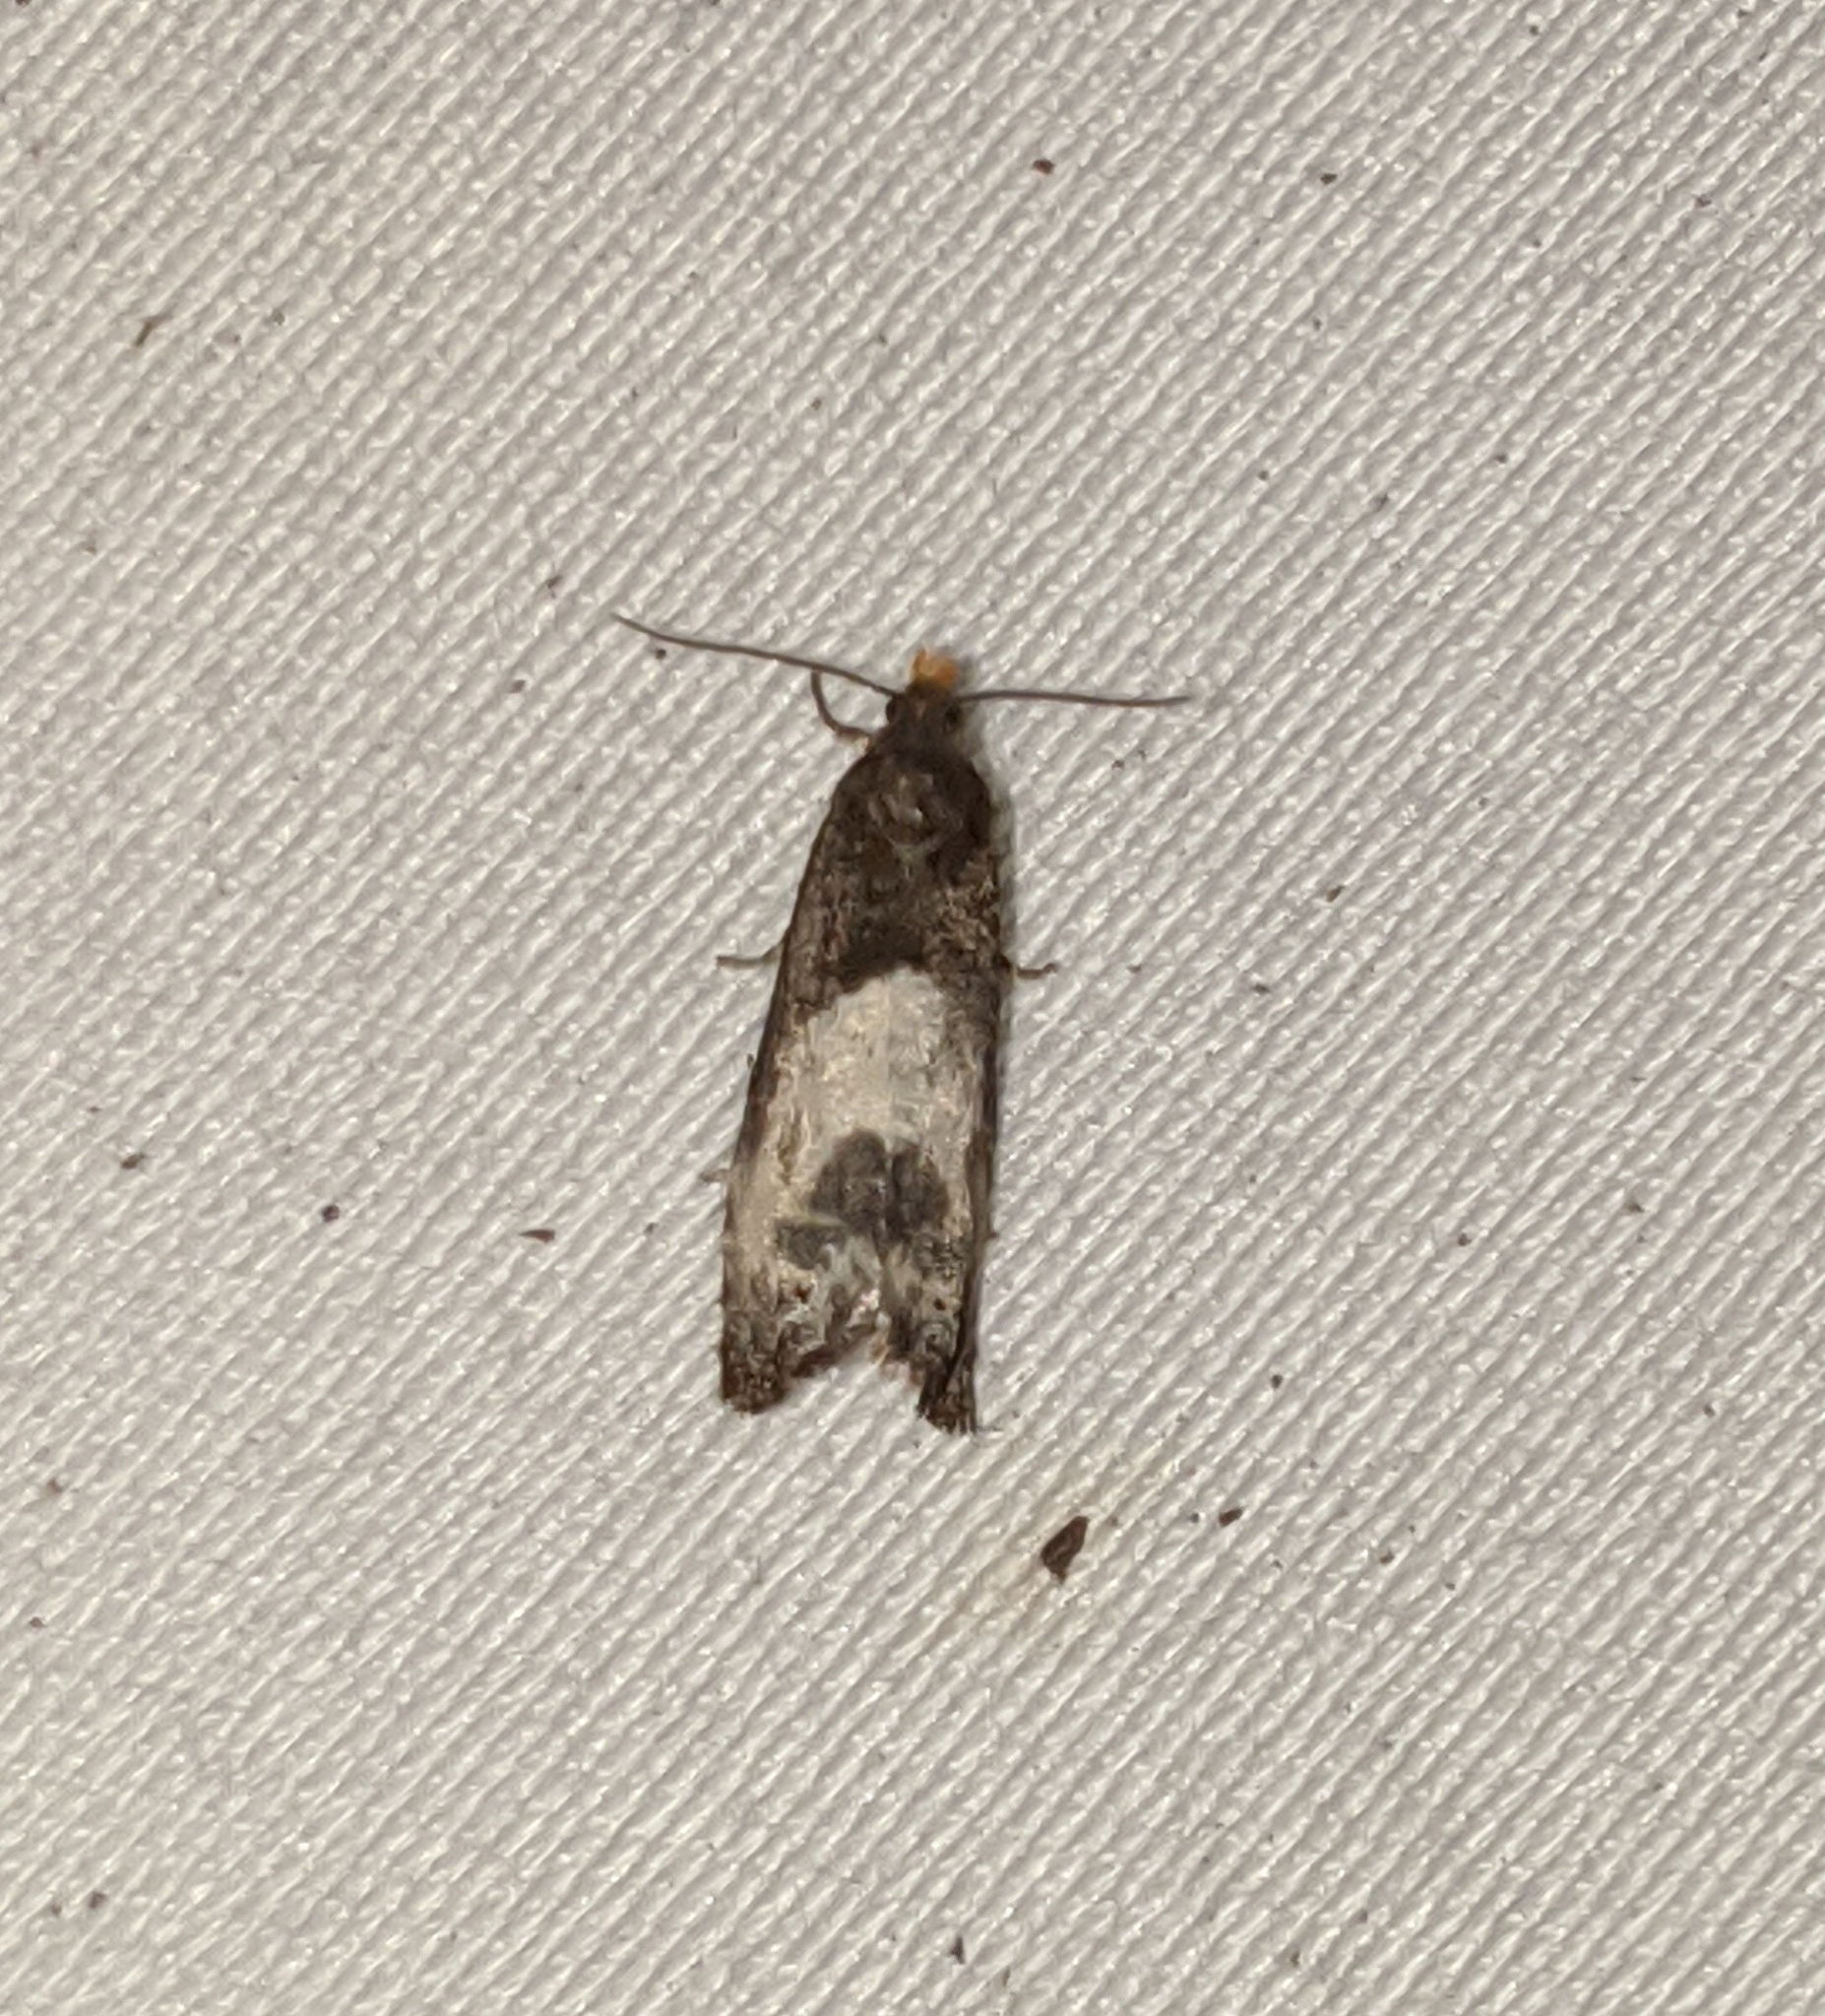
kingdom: Animalia
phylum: Arthropoda
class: Insecta
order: Lepidoptera
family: Tortricidae
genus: Notocelia
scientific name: Notocelia cynosbatella
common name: Yellow-faced bell moth
